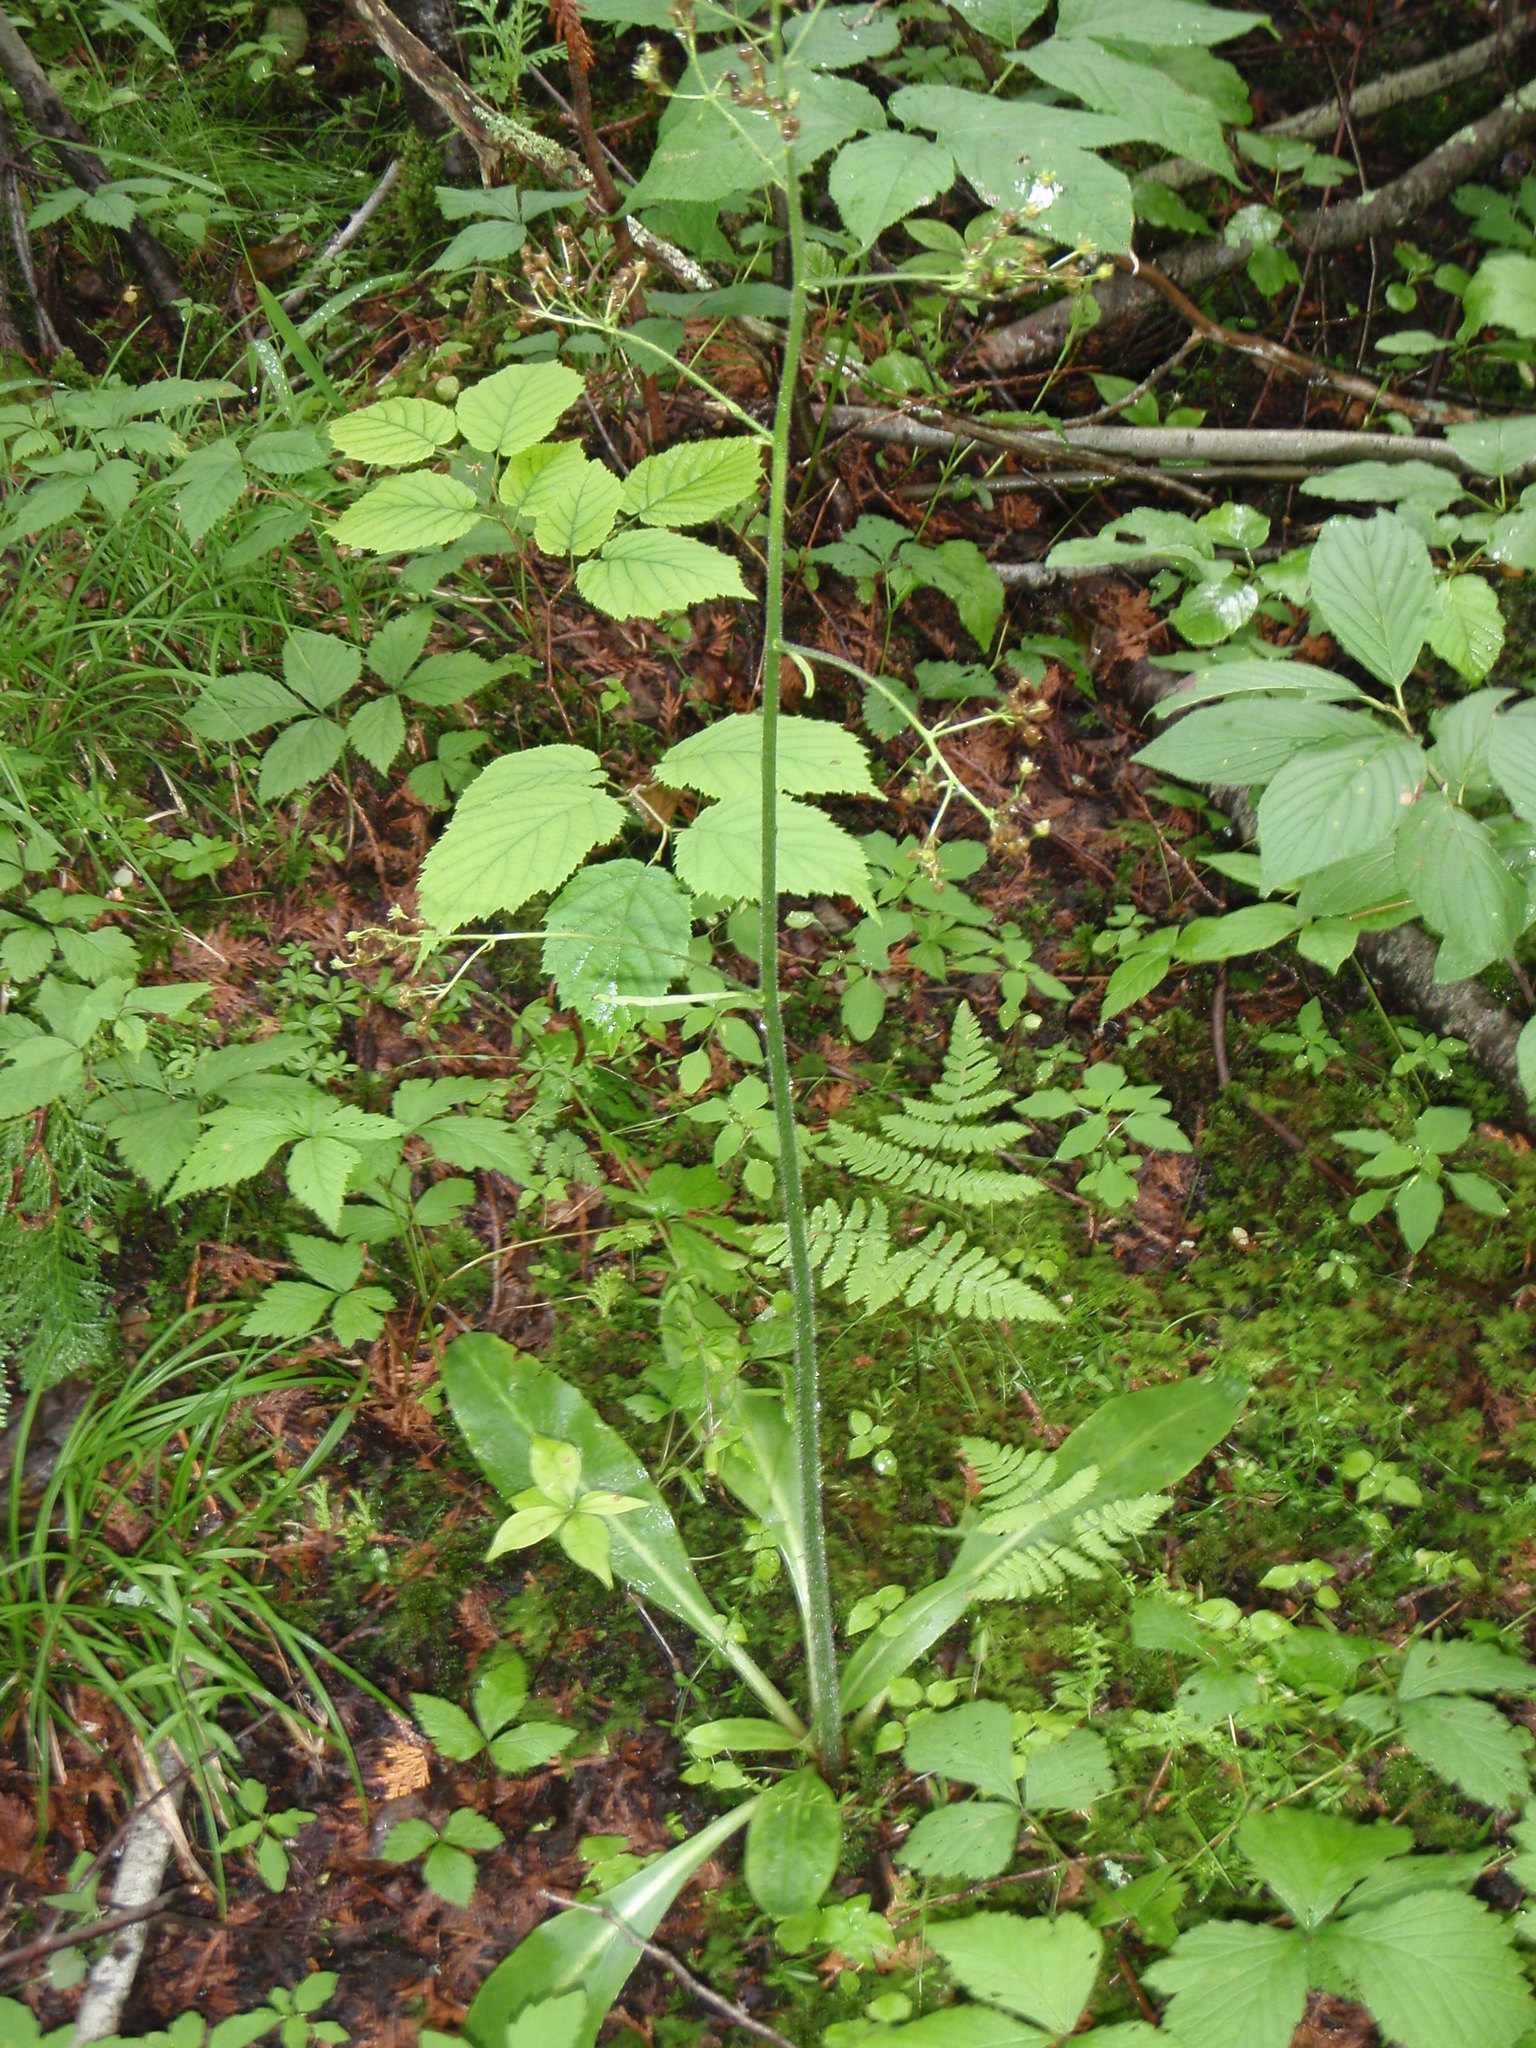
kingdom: Plantae
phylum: Tracheophyta
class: Magnoliopsida
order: Saxifragales
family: Saxifragaceae
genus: Micranthes
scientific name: Micranthes pensylvanica
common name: Marsh saxifrage
